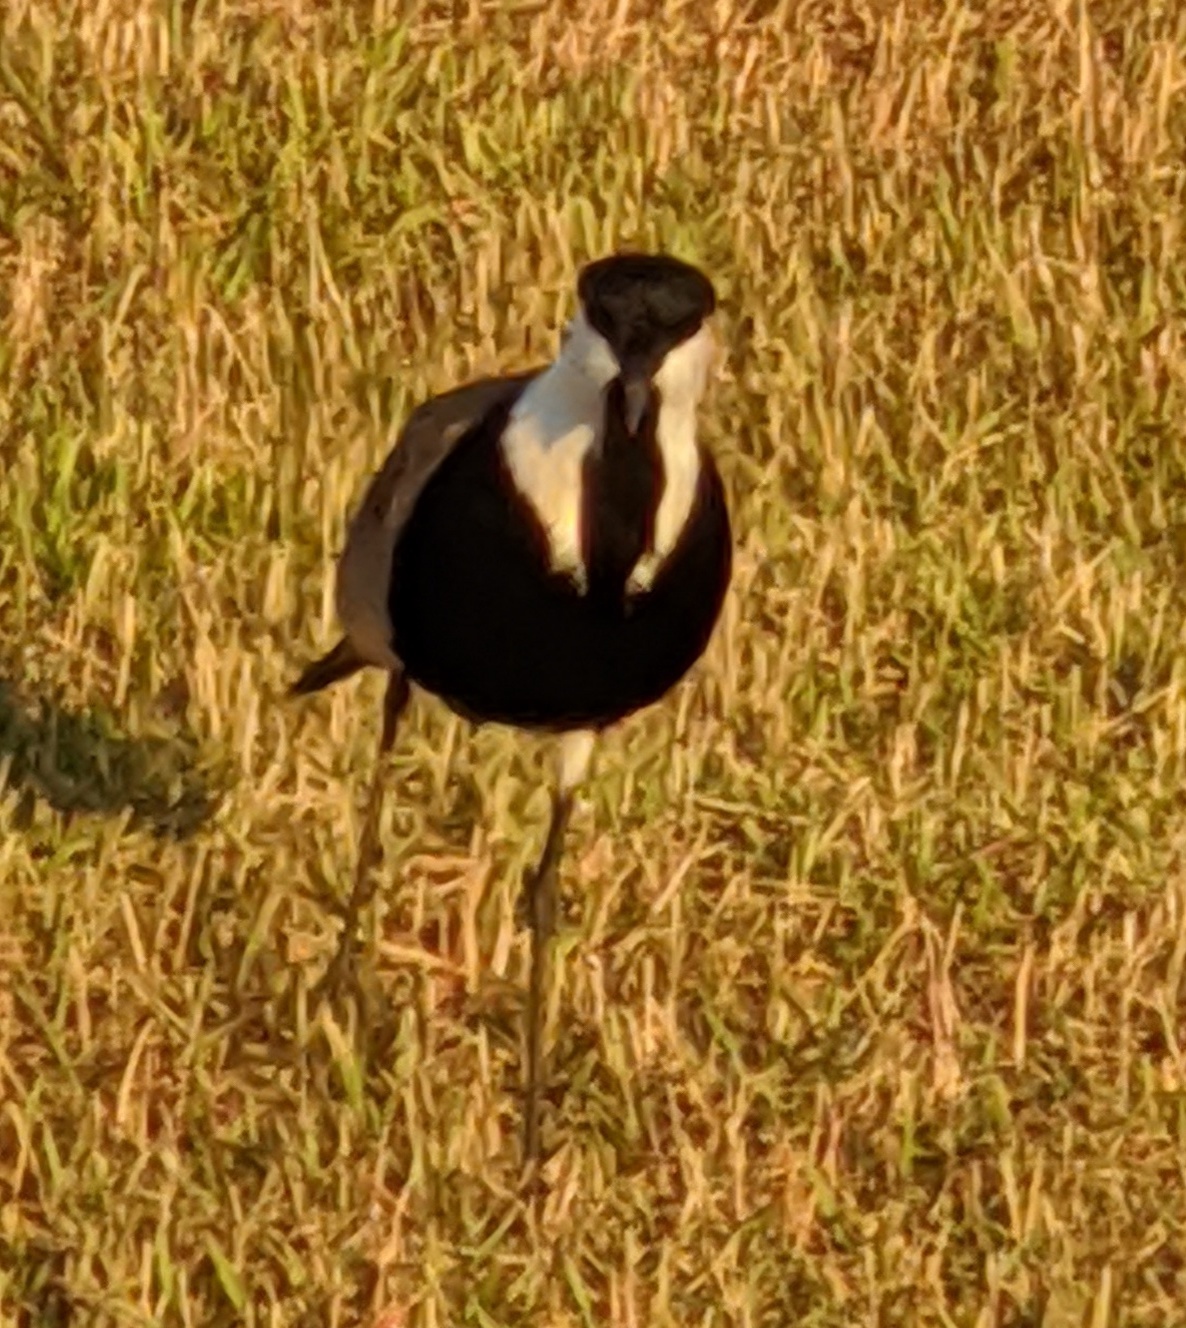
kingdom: Animalia
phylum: Chordata
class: Aves
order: Charadriiformes
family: Charadriidae
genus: Vanellus
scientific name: Vanellus spinosus
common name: Spur-winged lapwing
